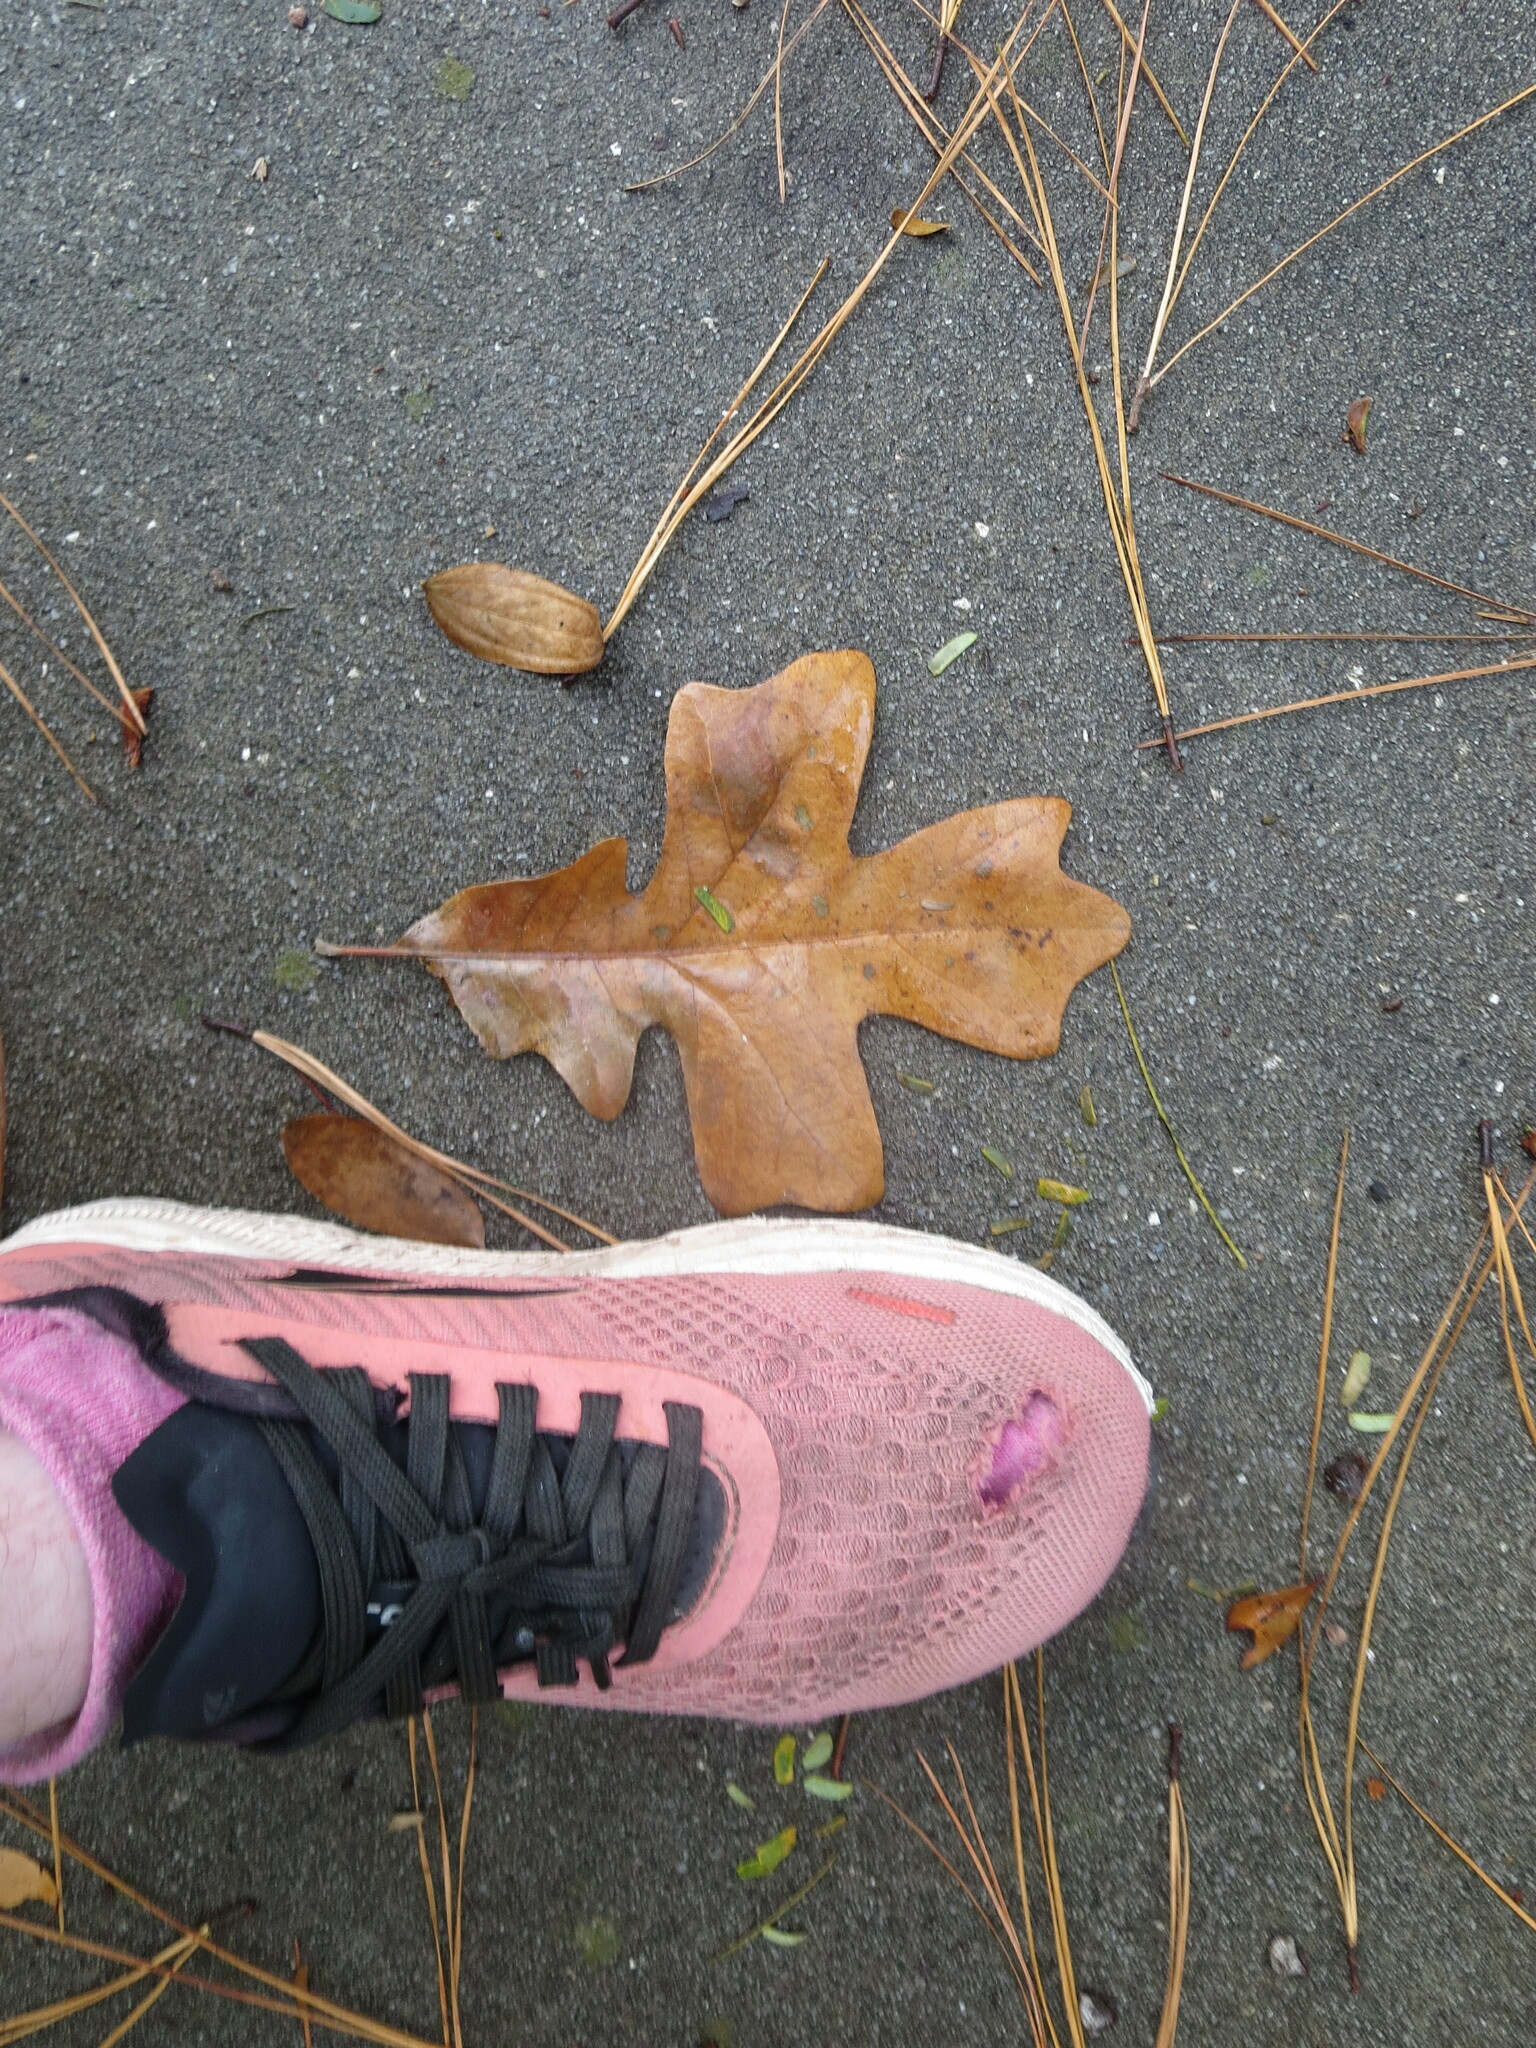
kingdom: Plantae
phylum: Tracheophyta
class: Magnoliopsida
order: Fagales
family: Fagaceae
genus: Quercus
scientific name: Quercus stellata
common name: Post oak
